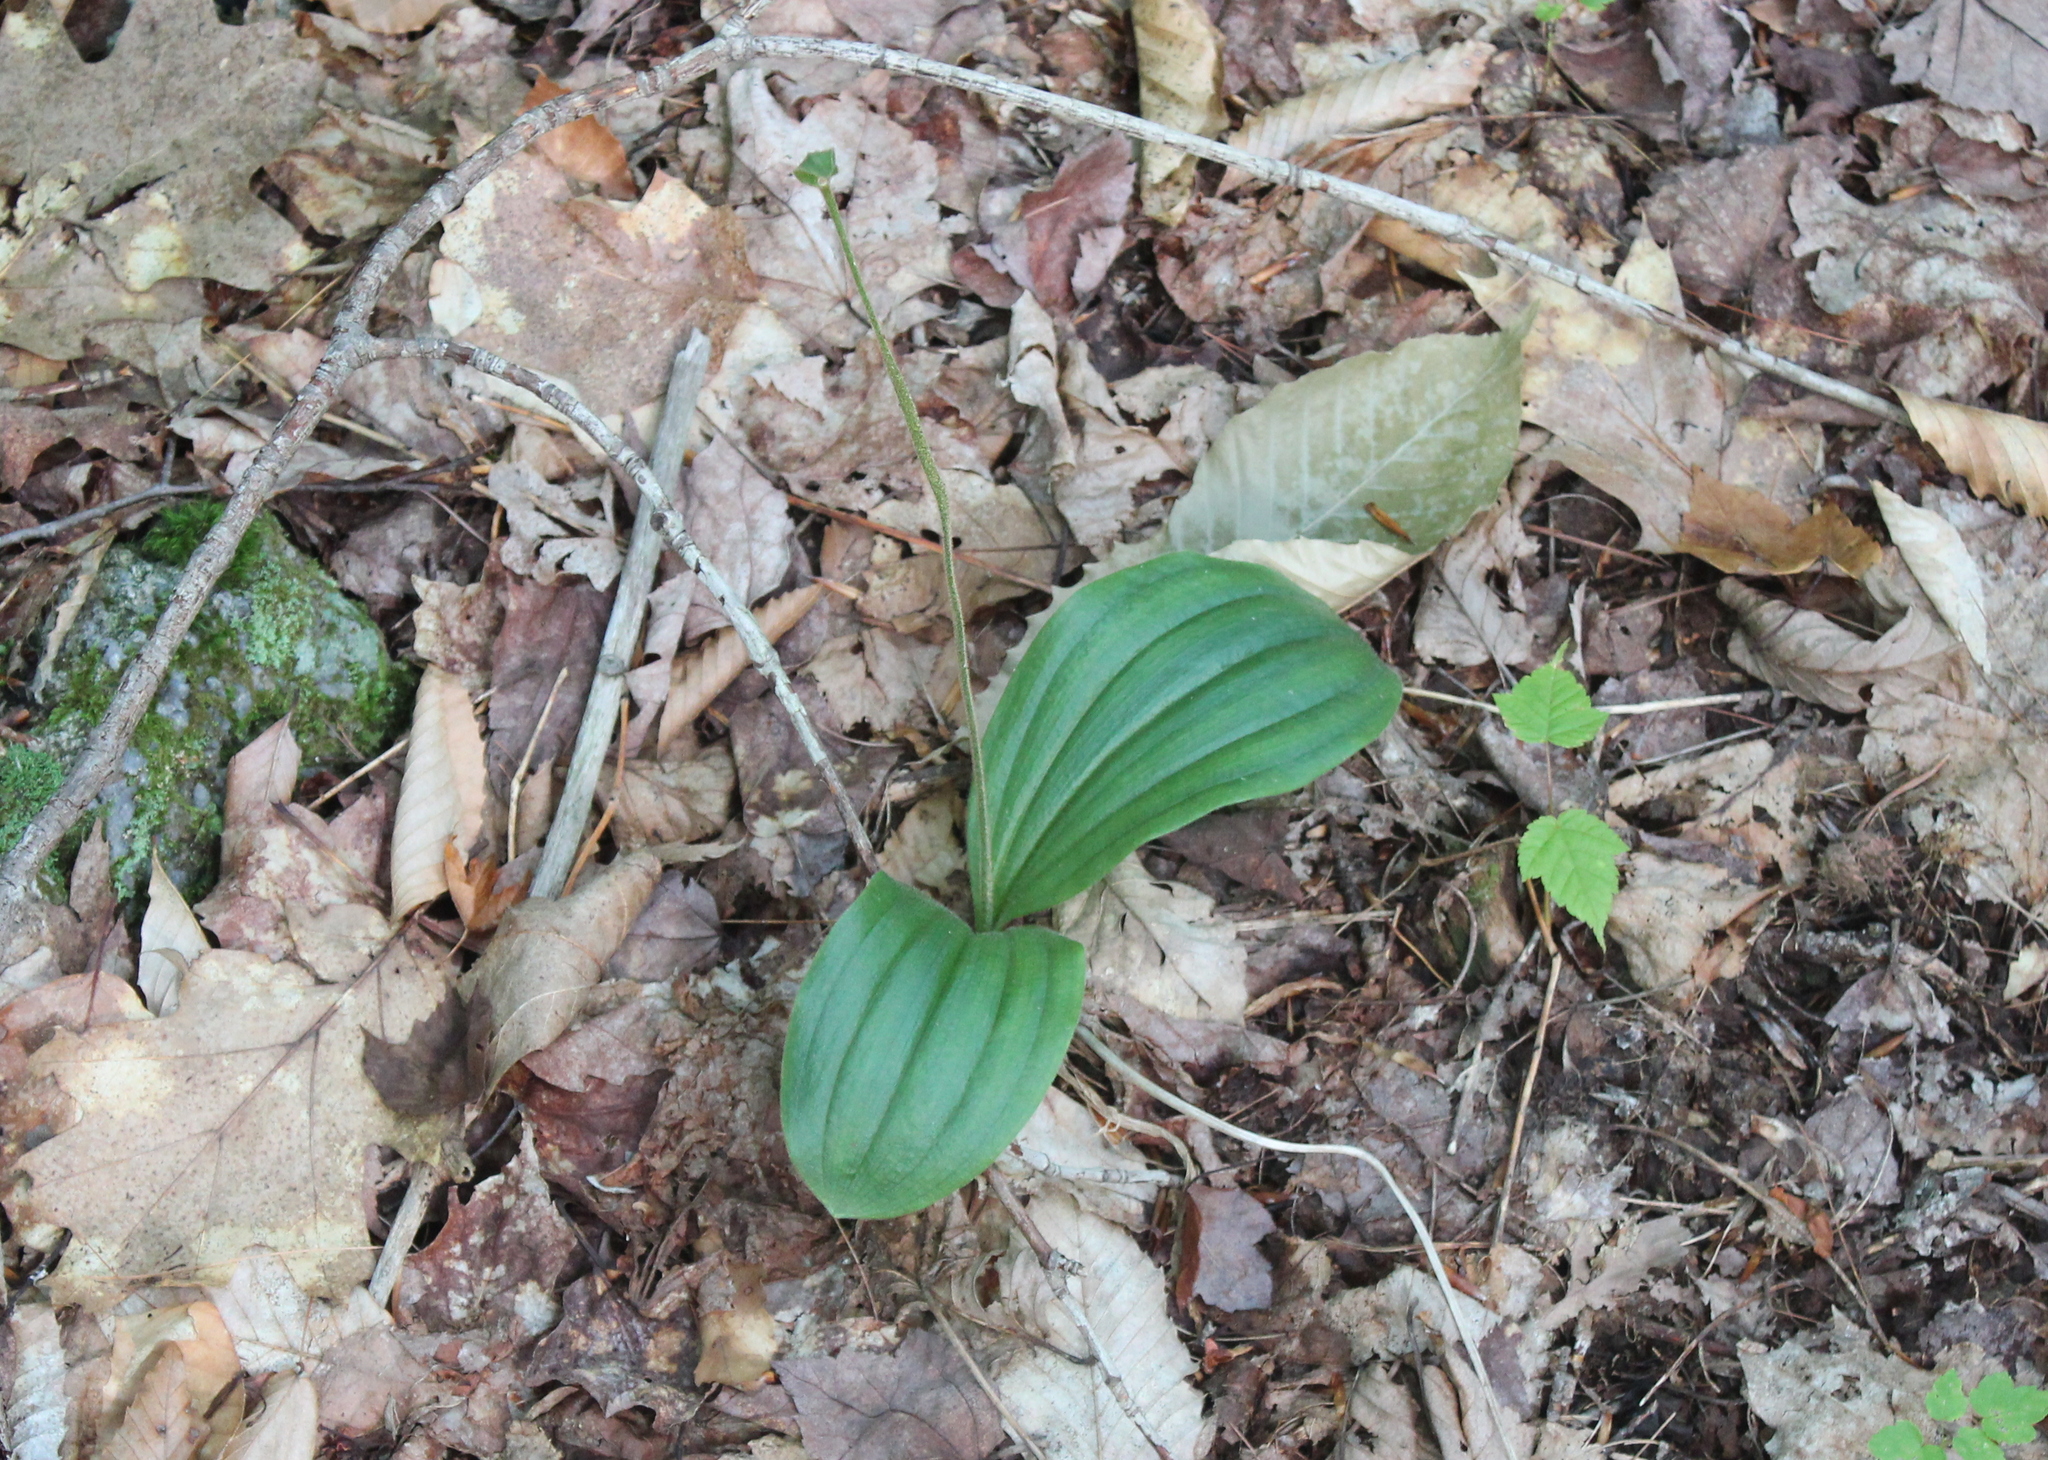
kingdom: Plantae
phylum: Tracheophyta
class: Liliopsida
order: Asparagales
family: Orchidaceae
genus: Cypripedium
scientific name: Cypripedium acaule
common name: Pink lady's-slipper
